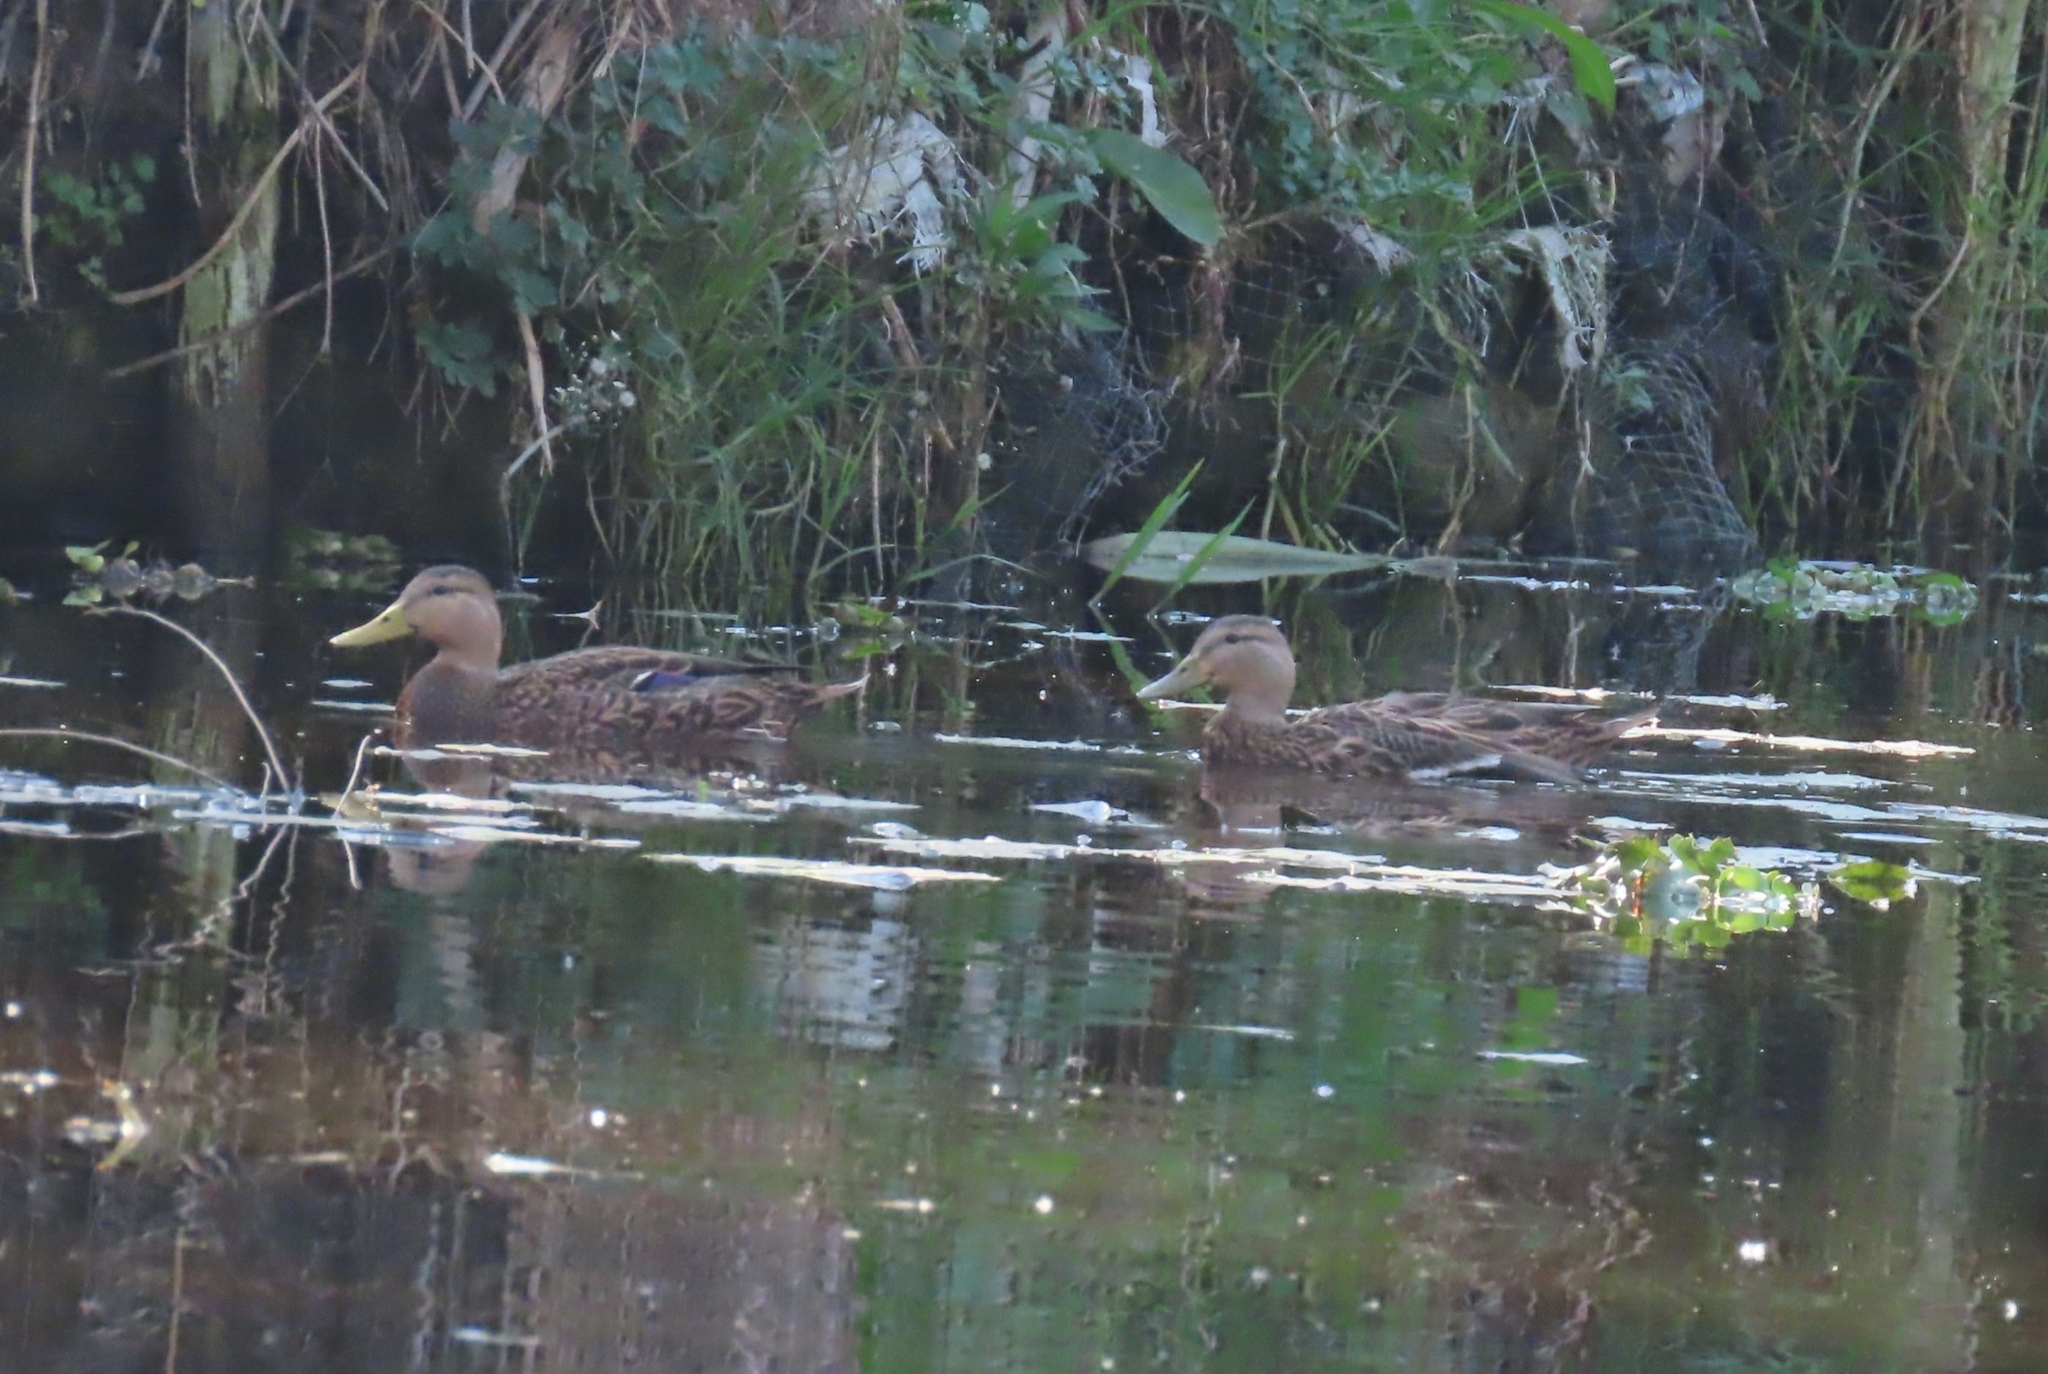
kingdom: Animalia
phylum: Chordata
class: Aves
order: Anseriformes
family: Anatidae
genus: Anas
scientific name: Anas diazi
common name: Mexican duck
